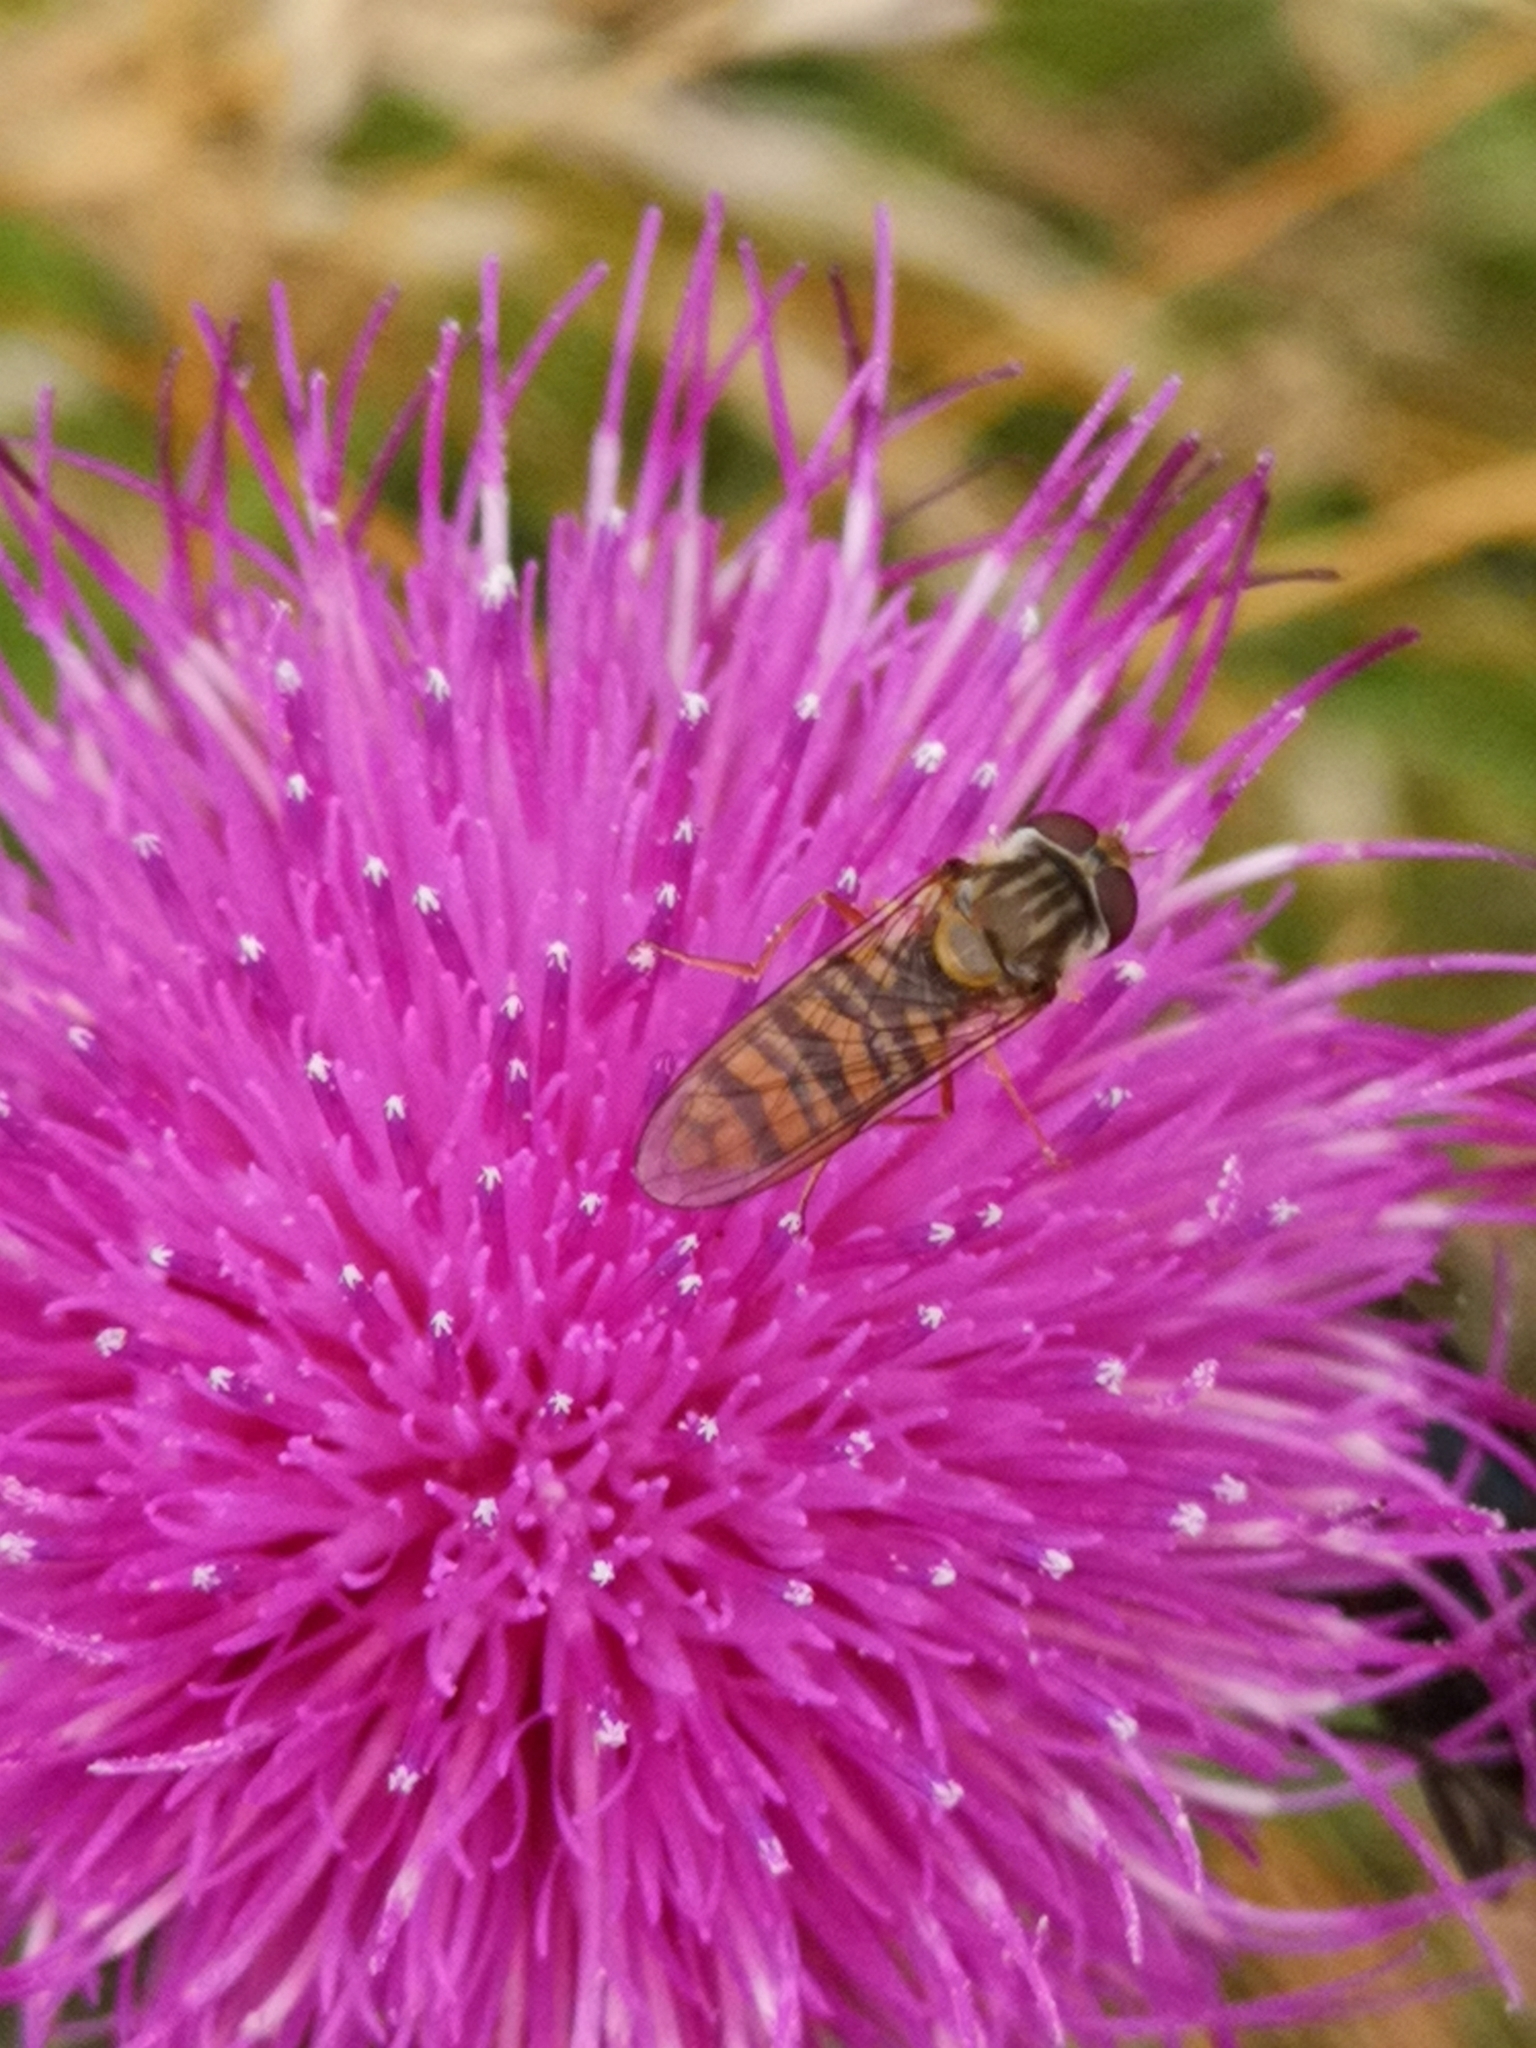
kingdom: Animalia
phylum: Arthropoda
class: Insecta
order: Diptera
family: Syrphidae
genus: Episyrphus
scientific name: Episyrphus balteatus
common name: Marmalade hoverfly
